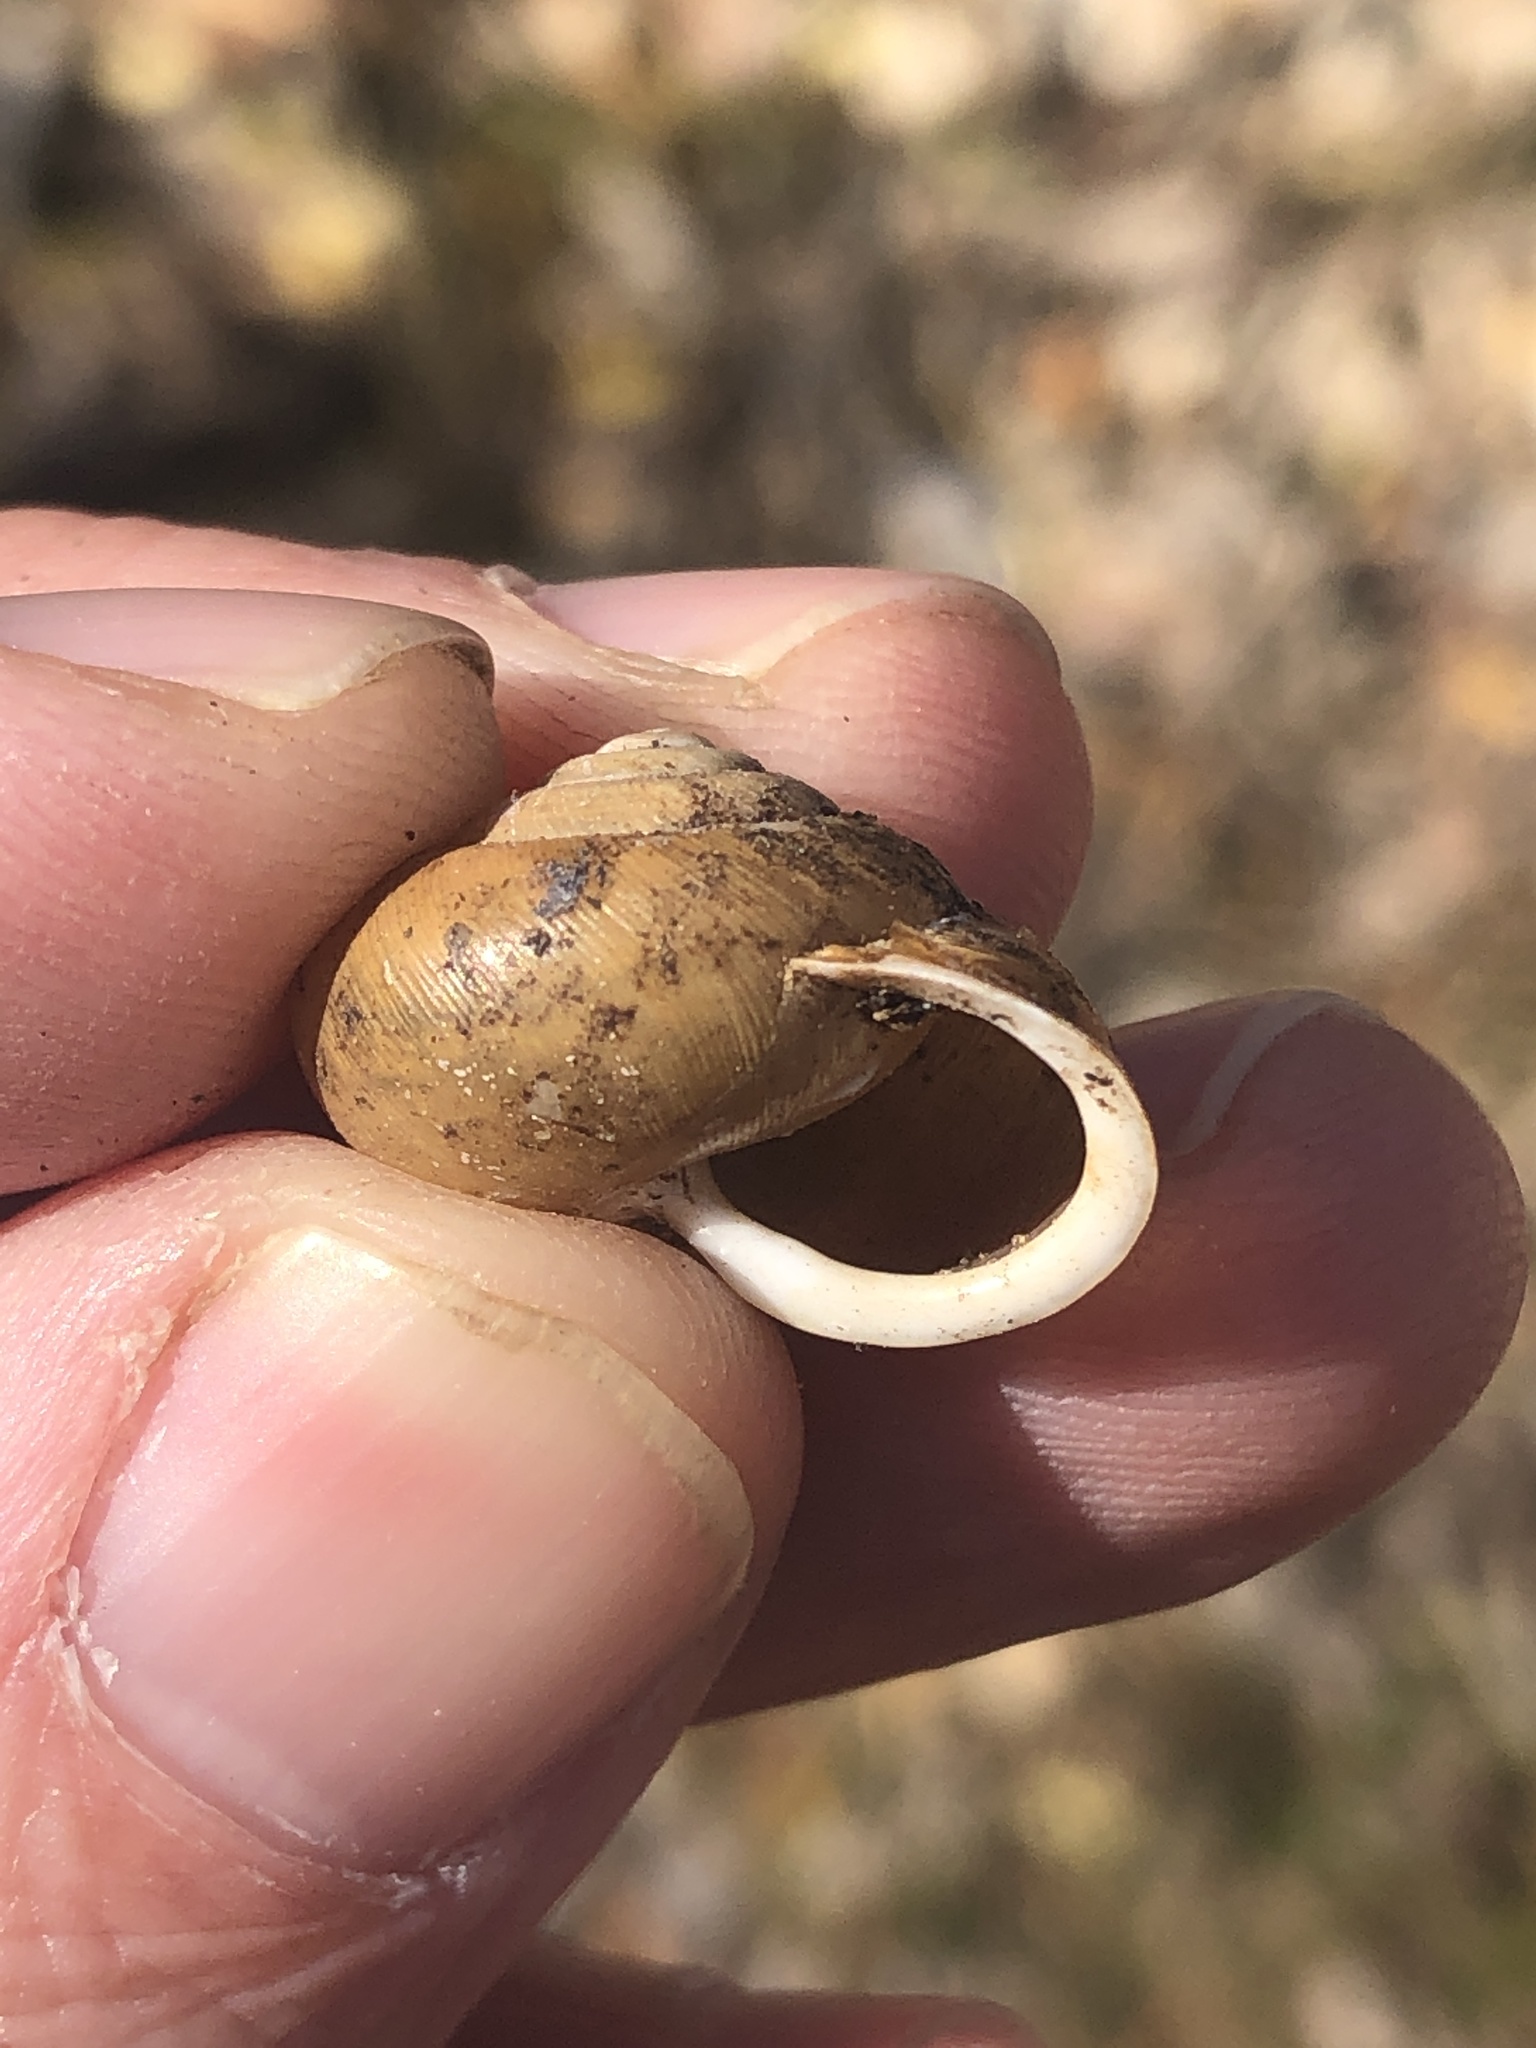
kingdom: Animalia
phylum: Mollusca
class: Gastropoda
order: Stylommatophora
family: Polygyridae
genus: Mesodon
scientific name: Mesodon thyroidus
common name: White-lip globe
